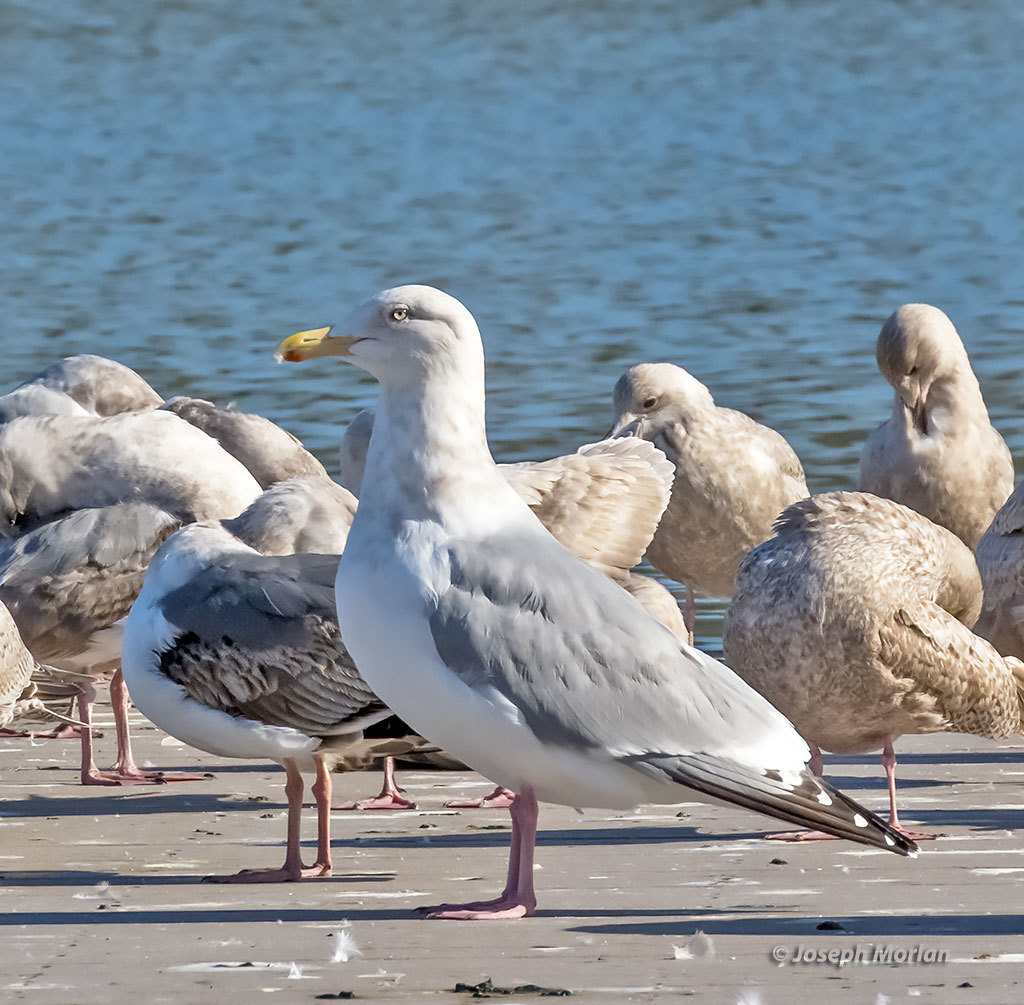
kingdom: Animalia
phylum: Chordata
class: Aves
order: Charadriiformes
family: Laridae
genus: Larus
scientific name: Larus argentatus
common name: Herring gull
